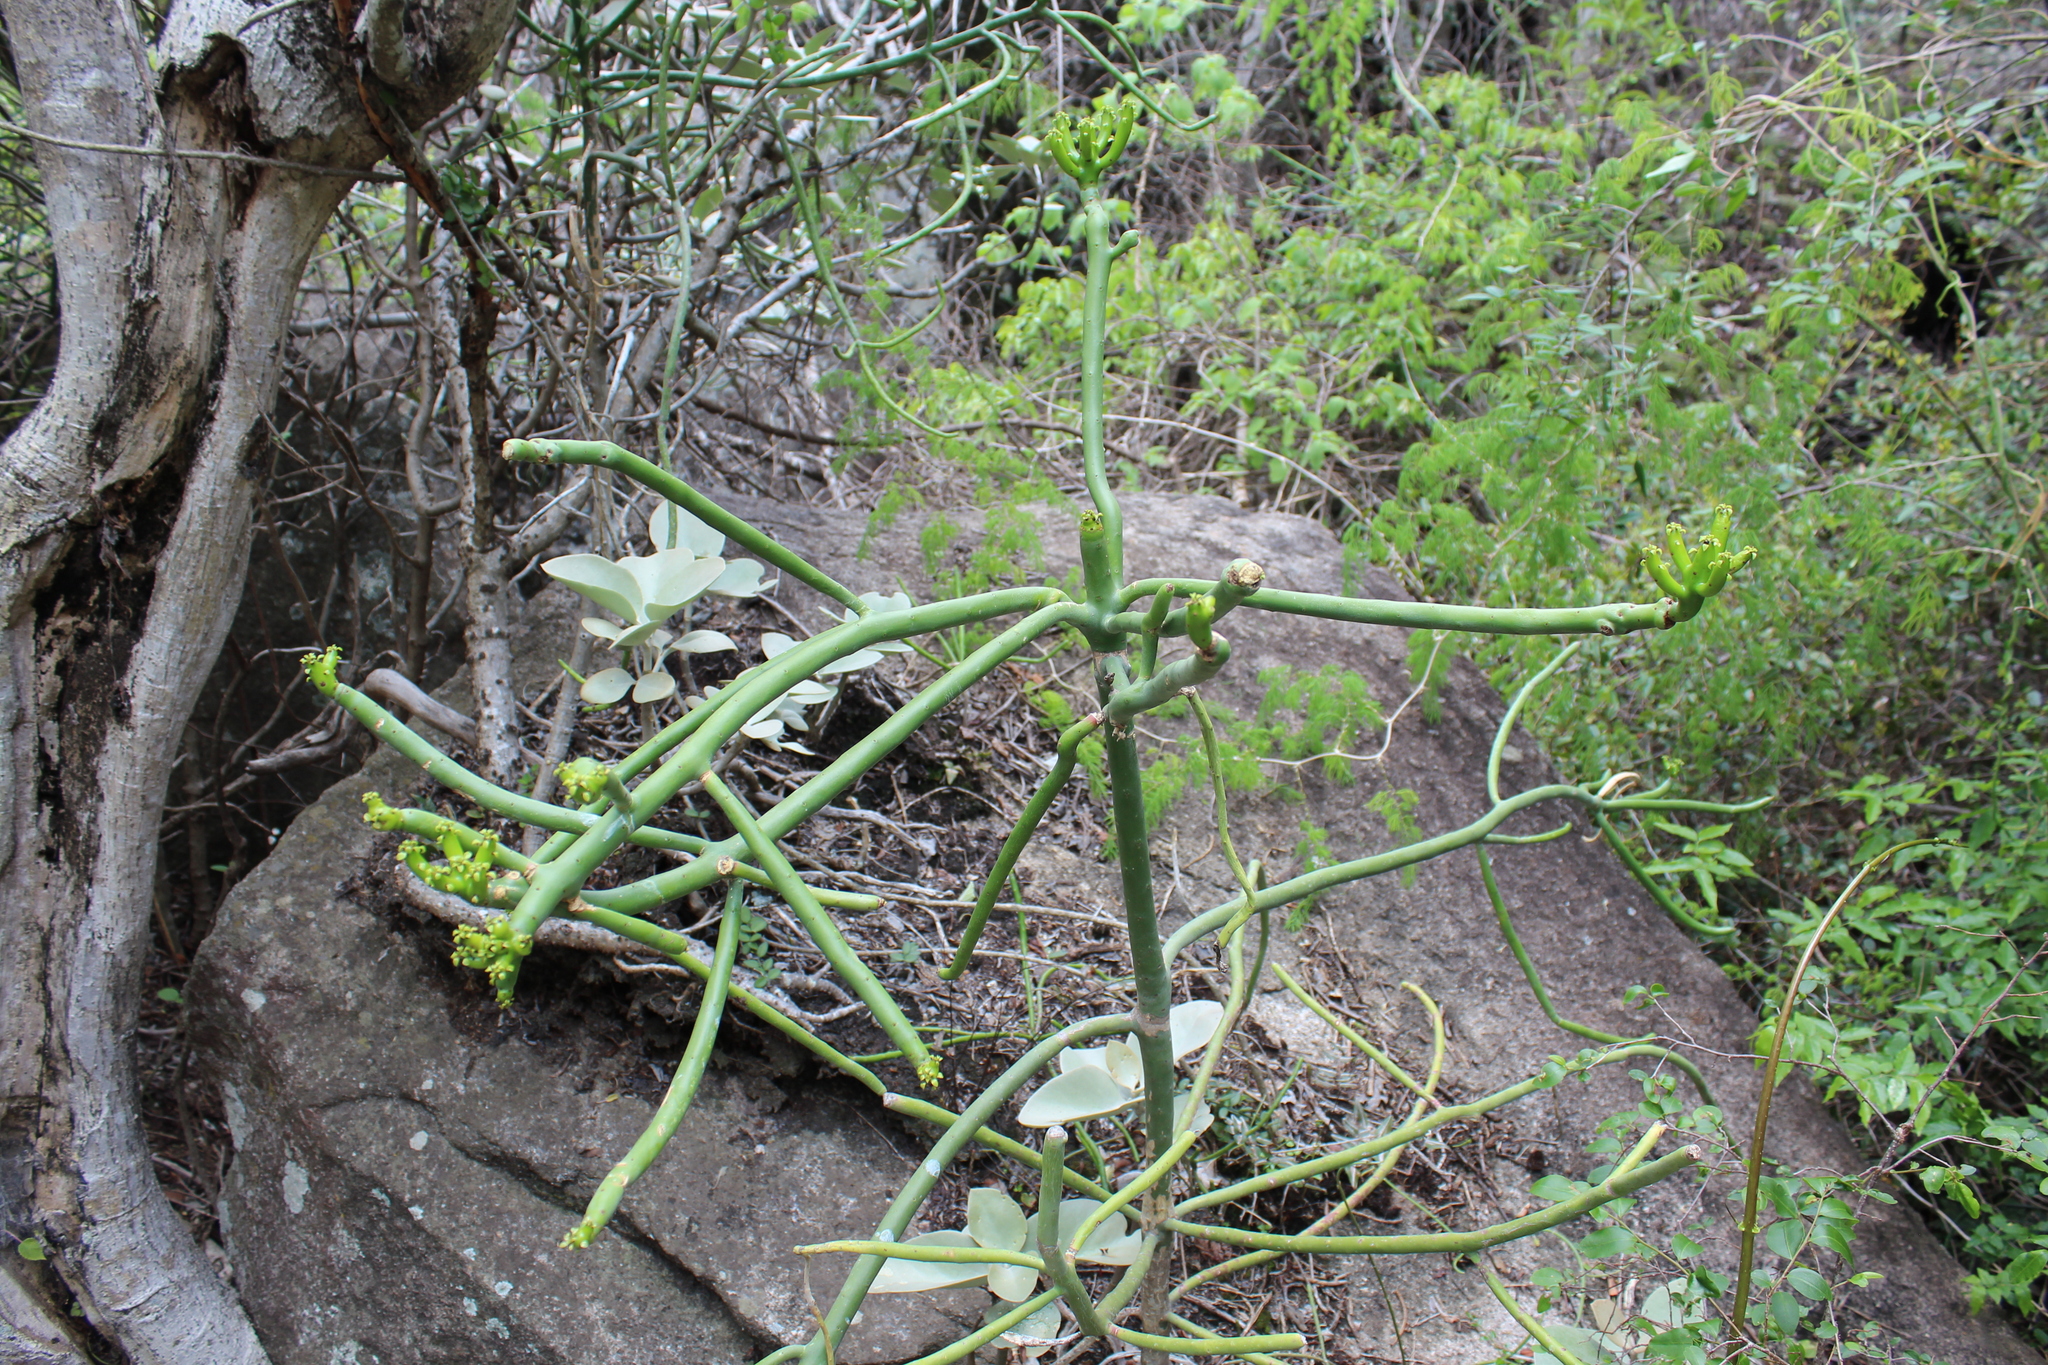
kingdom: Plantae
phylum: Tracheophyta
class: Magnoliopsida
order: Caryophyllales
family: Cactaceae
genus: Rhipsalis
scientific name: Rhipsalis baccifera
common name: Mistletoe cactus
